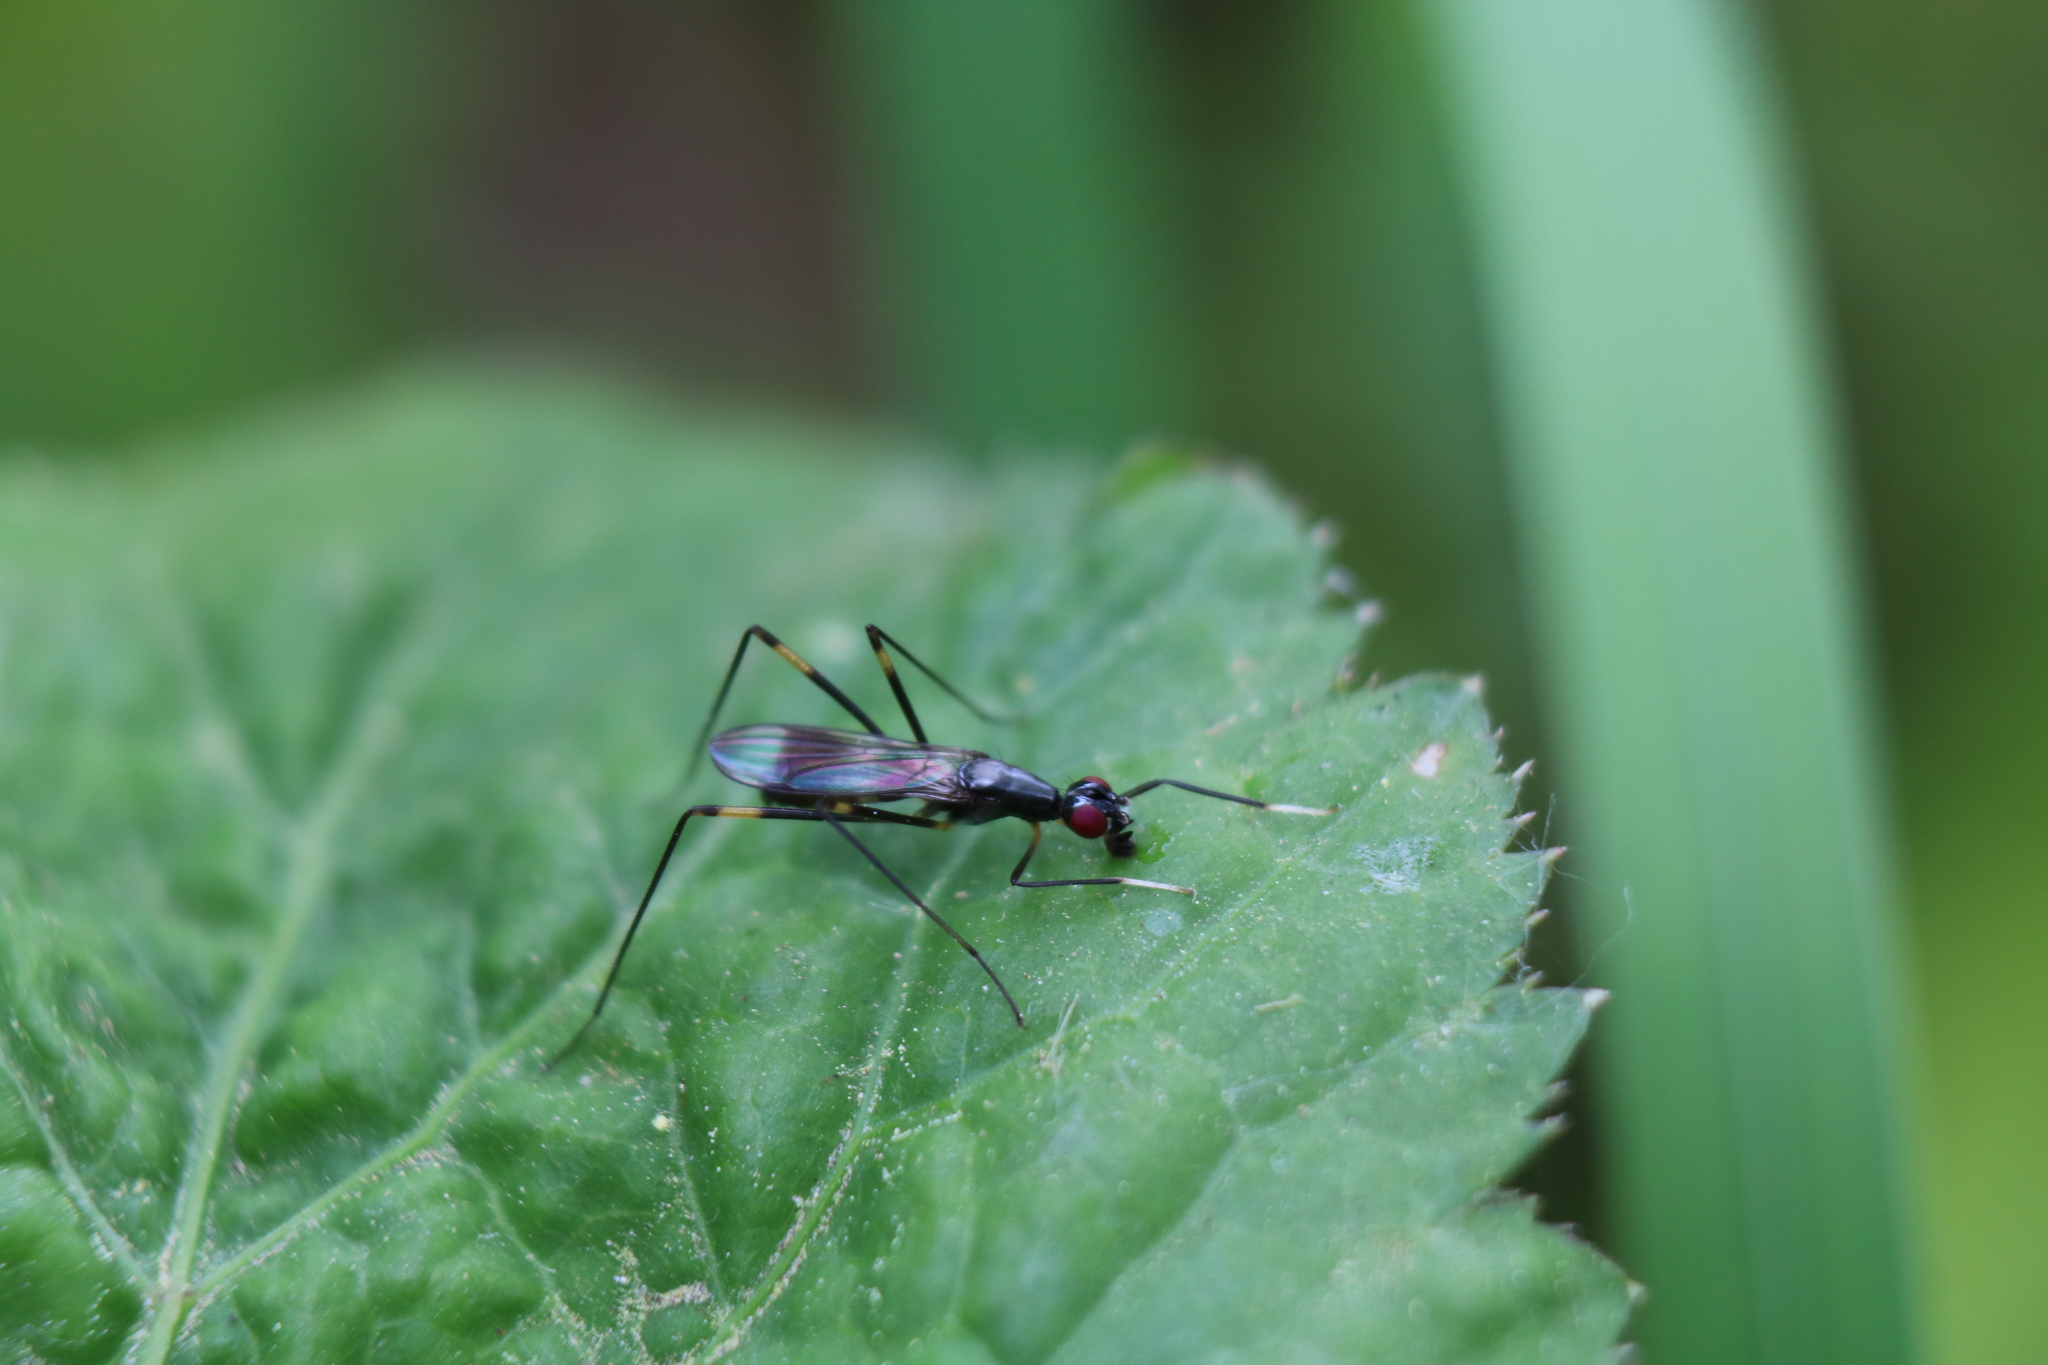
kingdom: Animalia
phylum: Arthropoda
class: Insecta
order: Diptera
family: Micropezidae
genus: Rainieria
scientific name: Rainieria antennaepes
